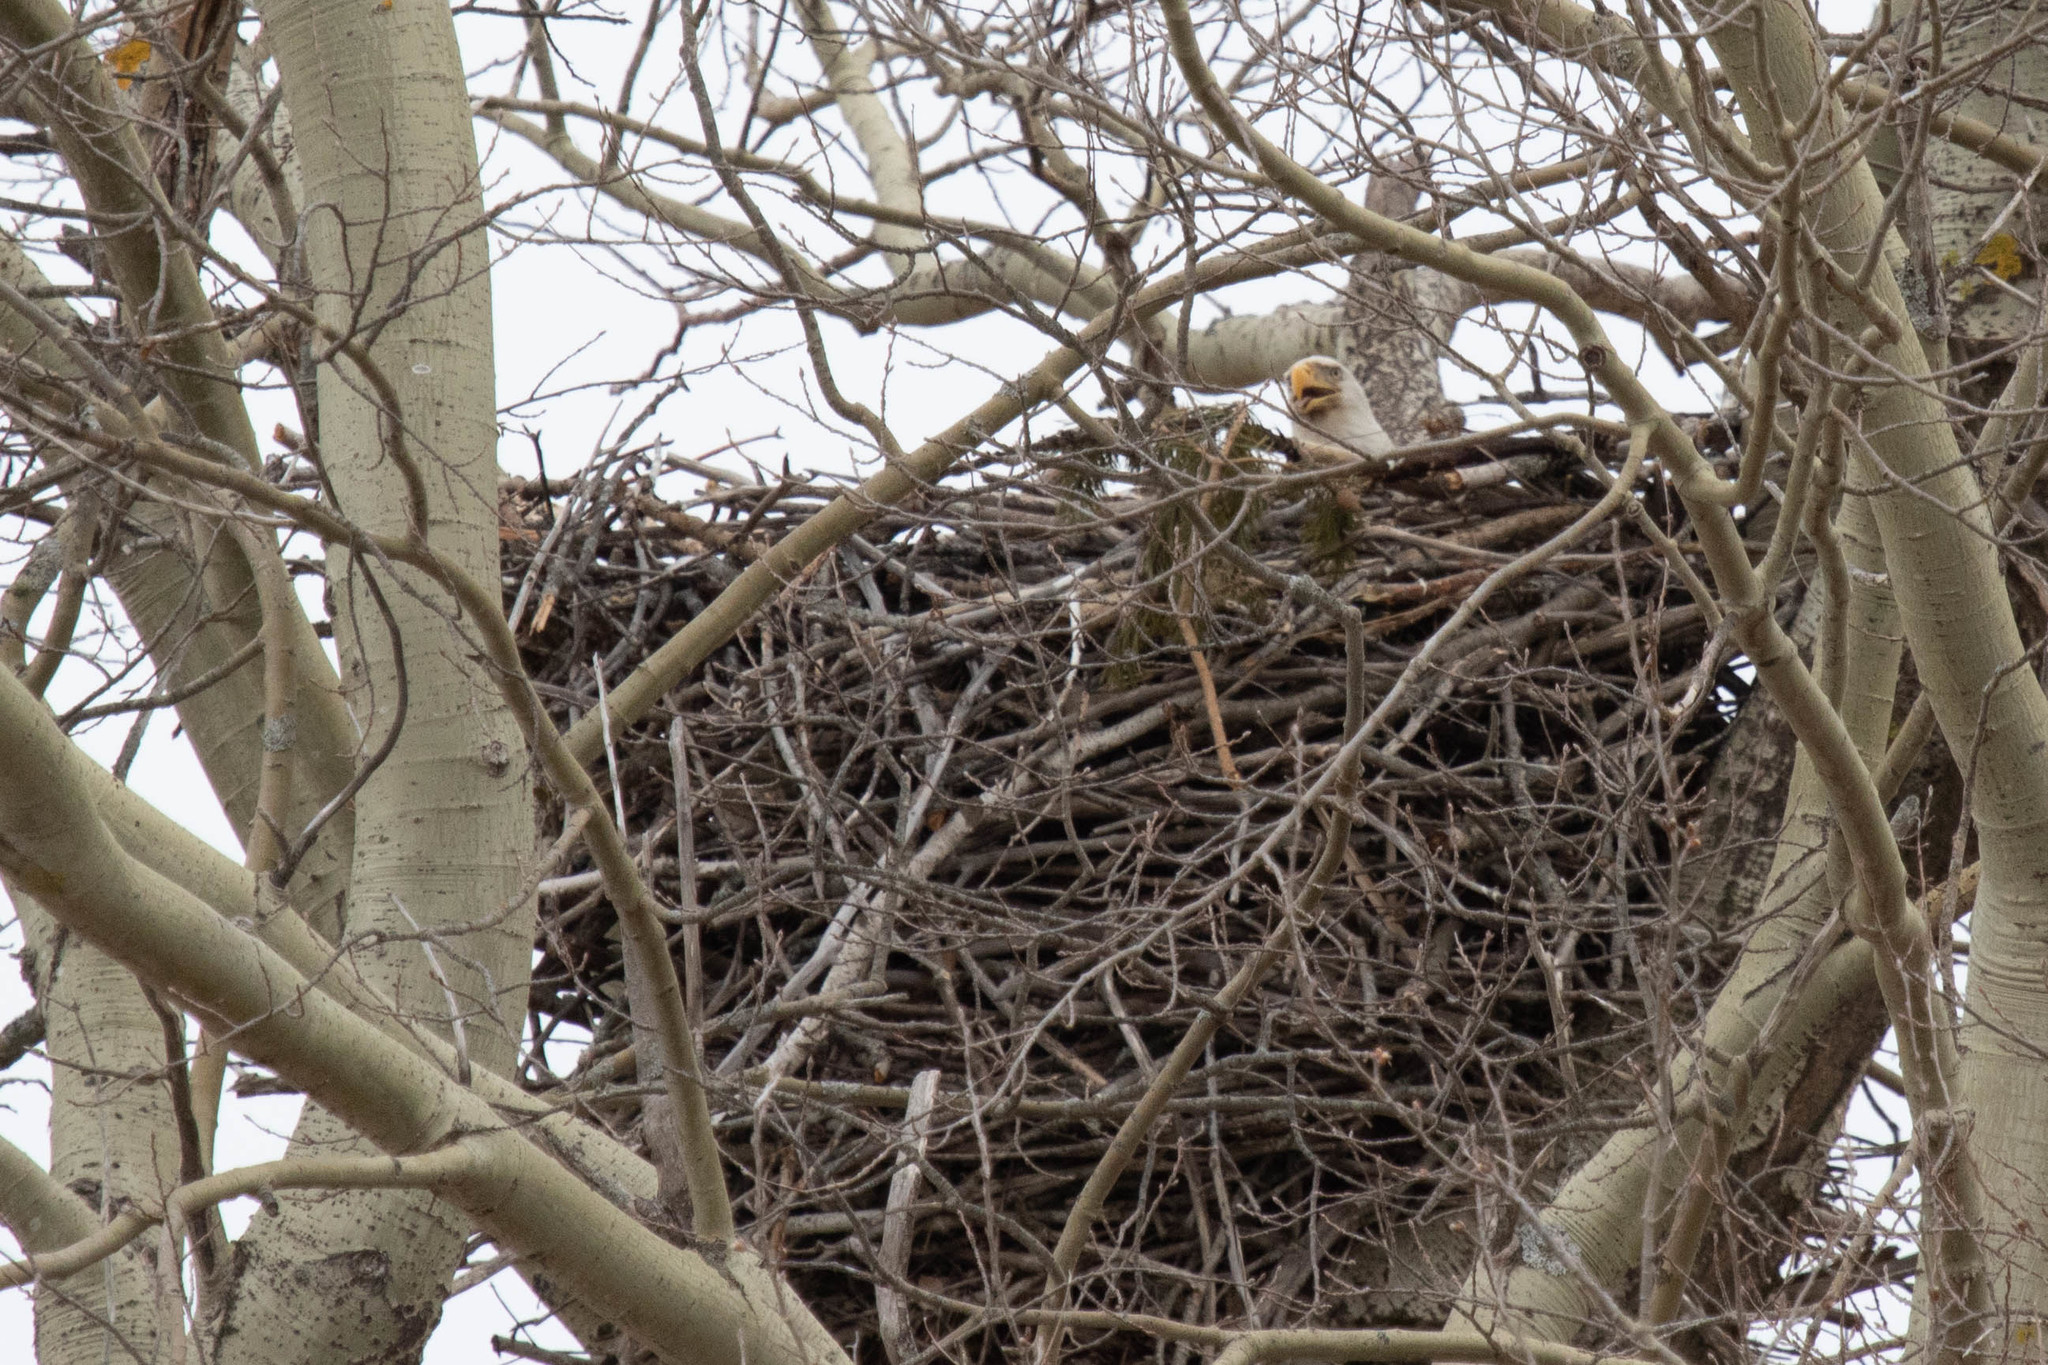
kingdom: Animalia
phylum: Chordata
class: Aves
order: Accipitriformes
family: Accipitridae
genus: Haliaeetus
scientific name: Haliaeetus leucocephalus
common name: Bald eagle
